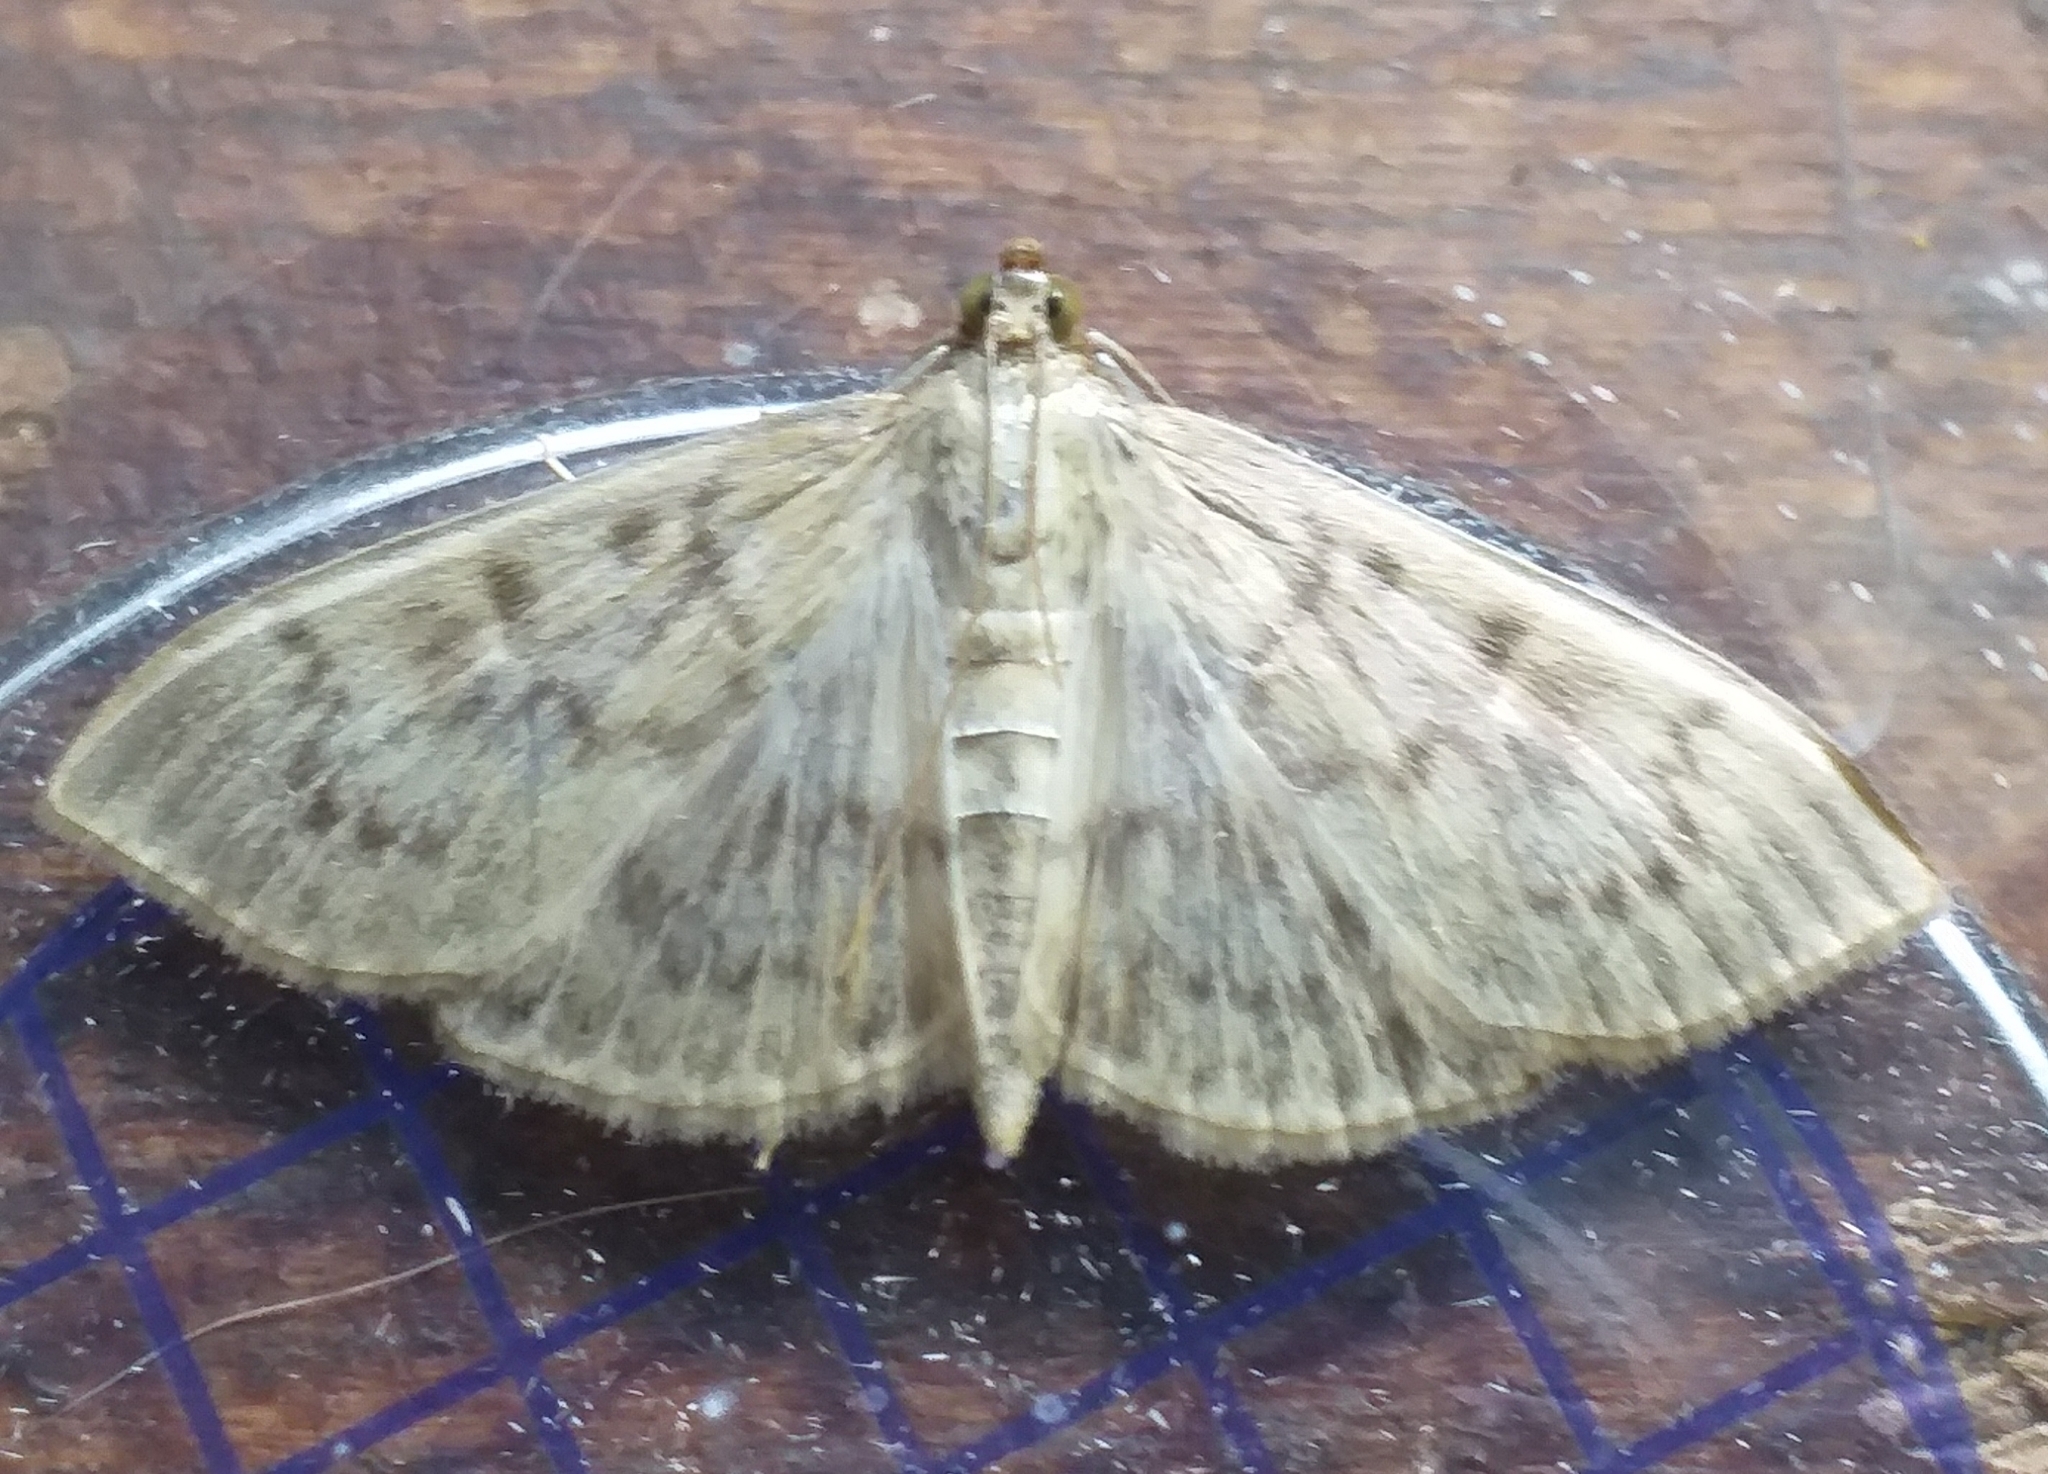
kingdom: Animalia
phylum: Arthropoda
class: Insecta
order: Lepidoptera
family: Crambidae
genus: Patania
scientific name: Patania ruralis
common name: Mother of pearl
